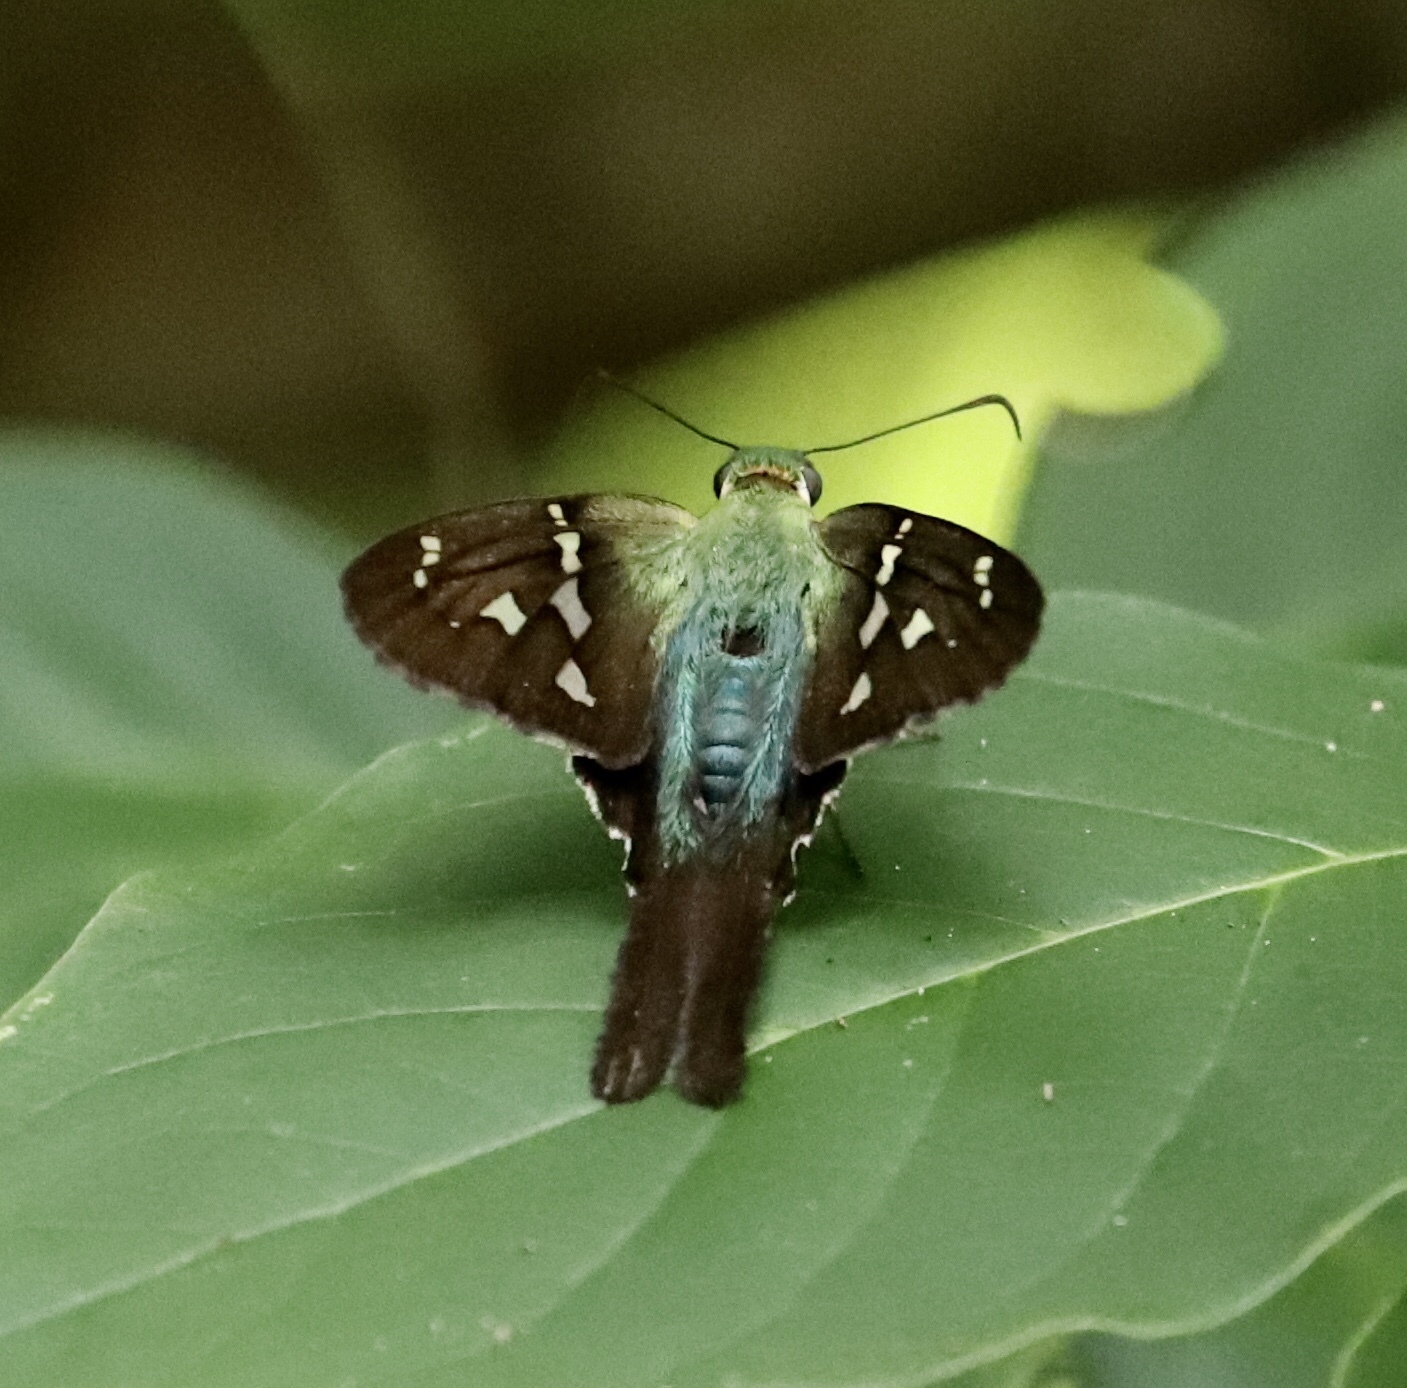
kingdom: Animalia
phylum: Arthropoda
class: Insecta
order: Lepidoptera
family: Hesperiidae
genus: Urbanus
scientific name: Urbanus proteus
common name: Long-tailed skipper
